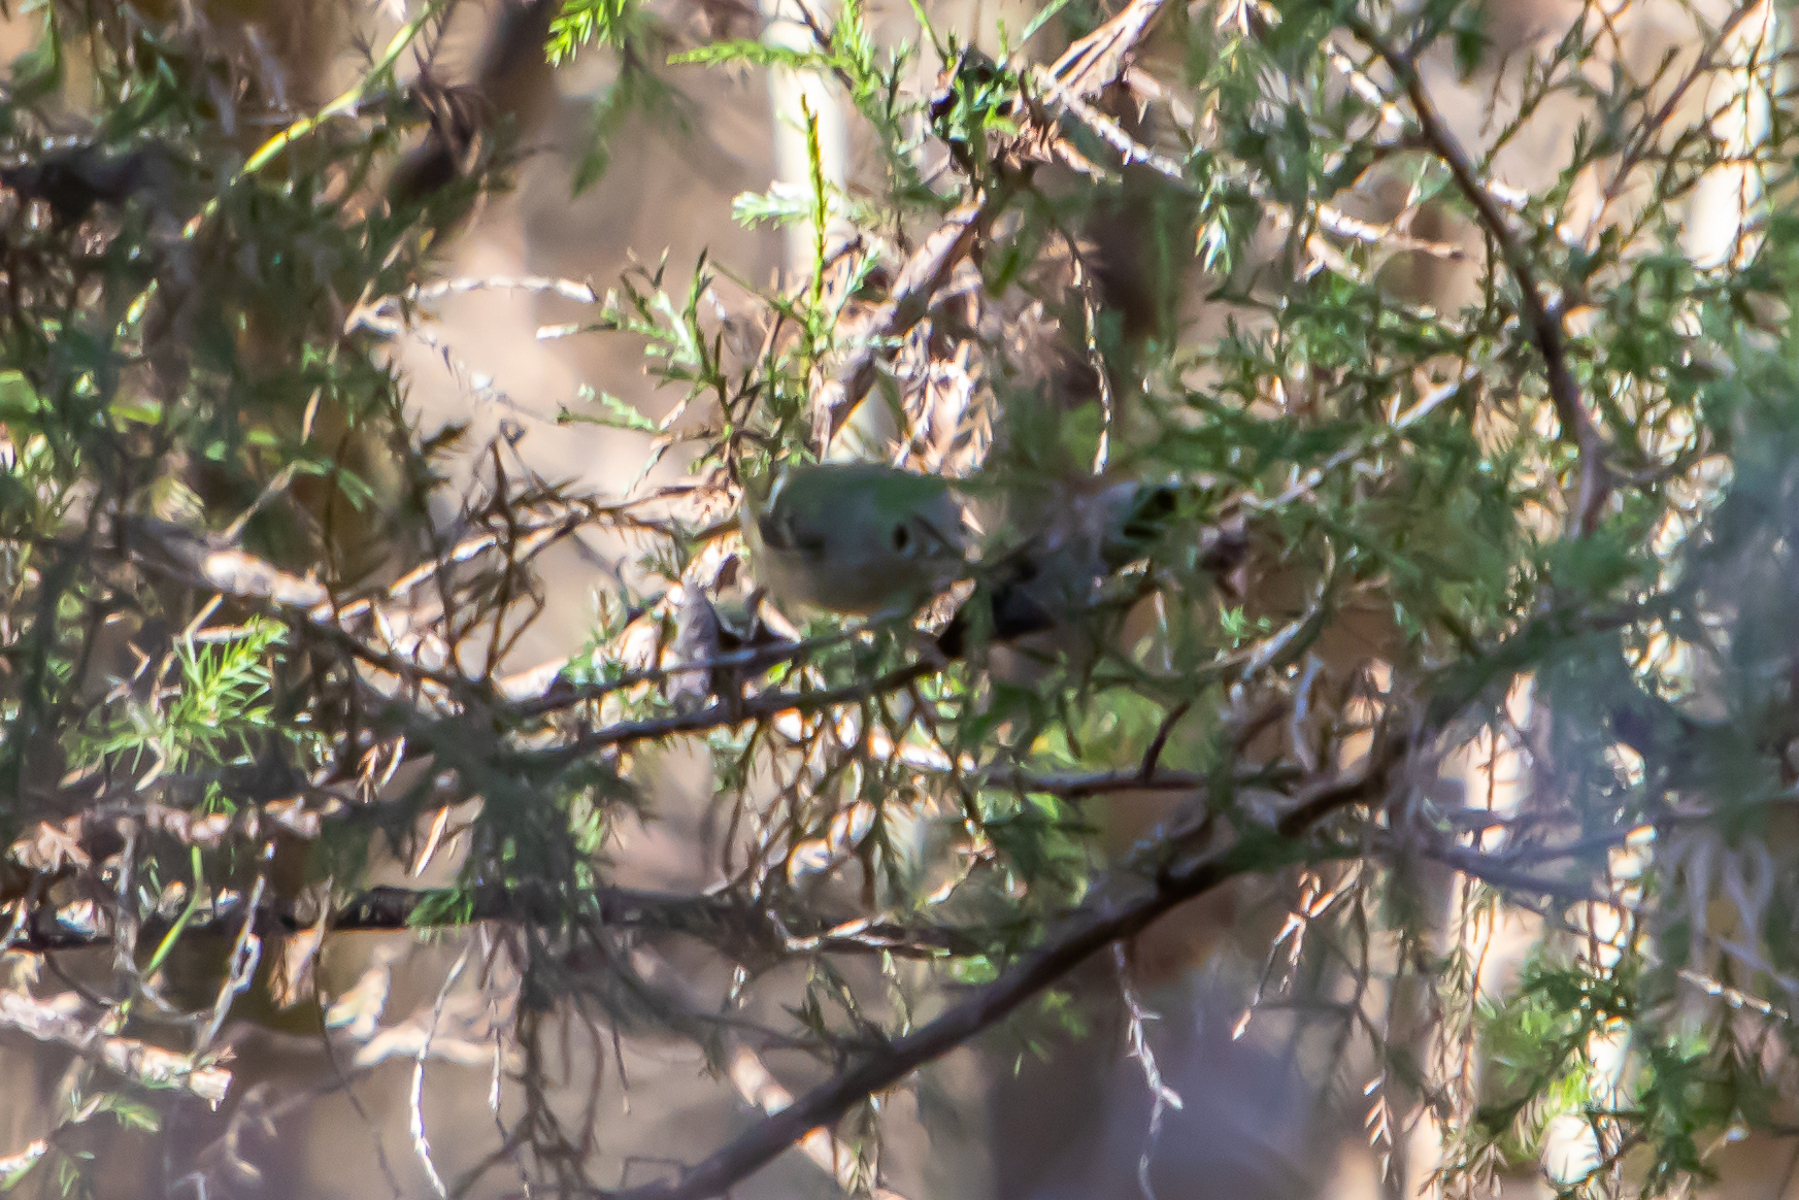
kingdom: Animalia
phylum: Chordata
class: Aves
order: Passeriformes
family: Regulidae
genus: Regulus
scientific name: Regulus calendula
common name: Ruby-crowned kinglet
